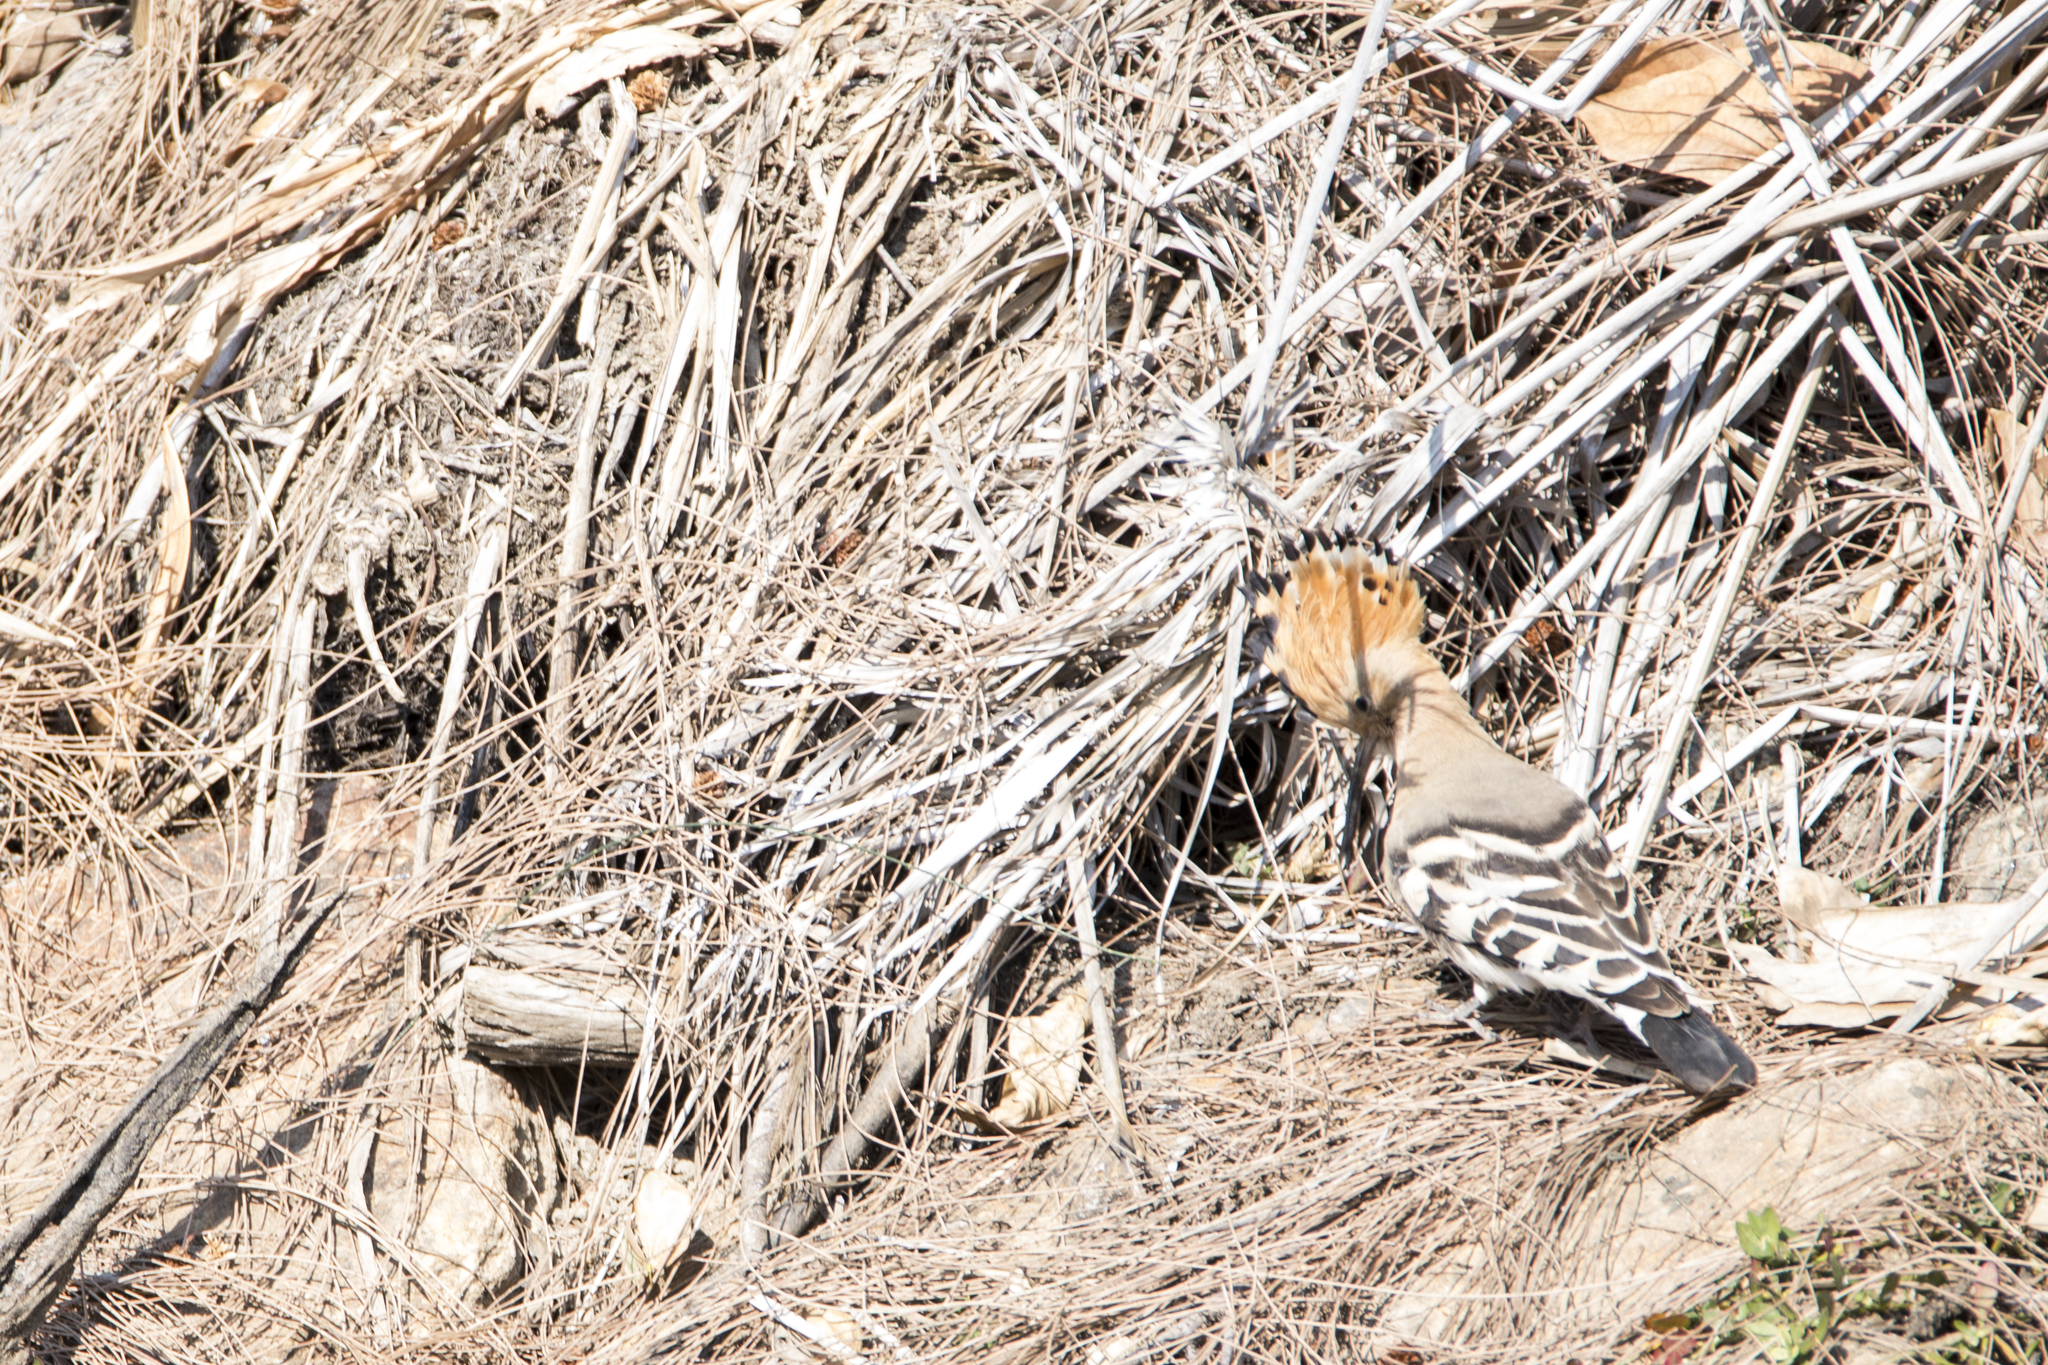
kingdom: Animalia
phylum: Chordata
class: Aves
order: Bucerotiformes
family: Upupidae
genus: Upupa
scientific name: Upupa epops
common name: Eurasian hoopoe
